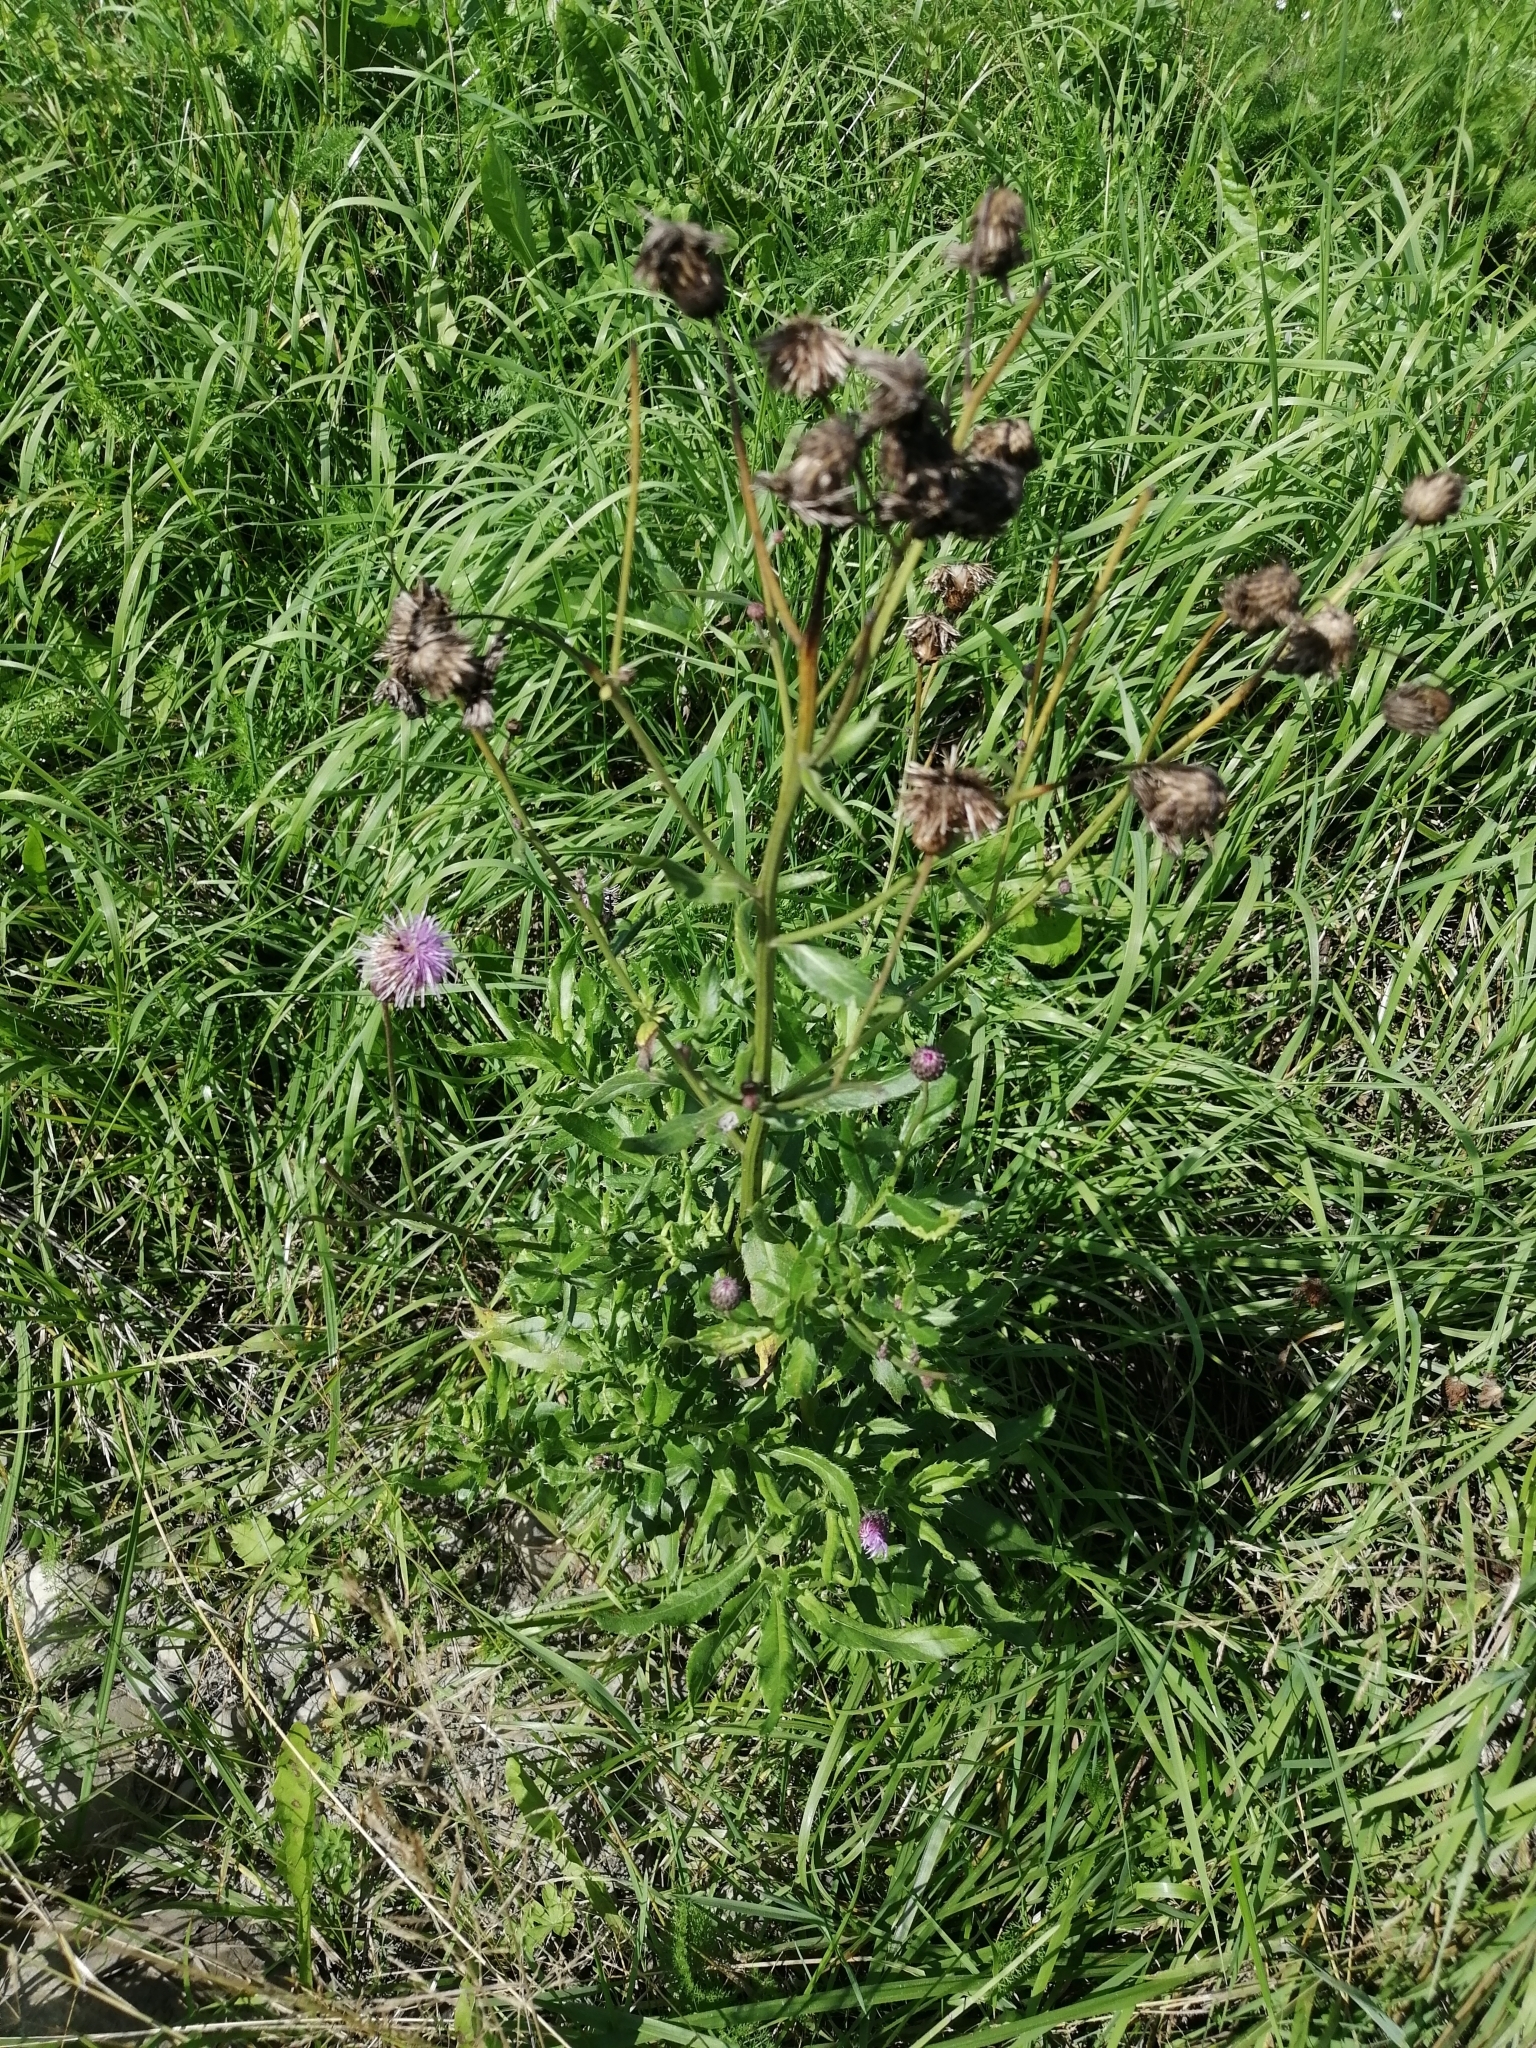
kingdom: Plantae
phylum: Tracheophyta
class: Magnoliopsida
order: Asterales
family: Asteraceae
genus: Cirsium
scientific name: Cirsium arvense
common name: Creeping thistle
